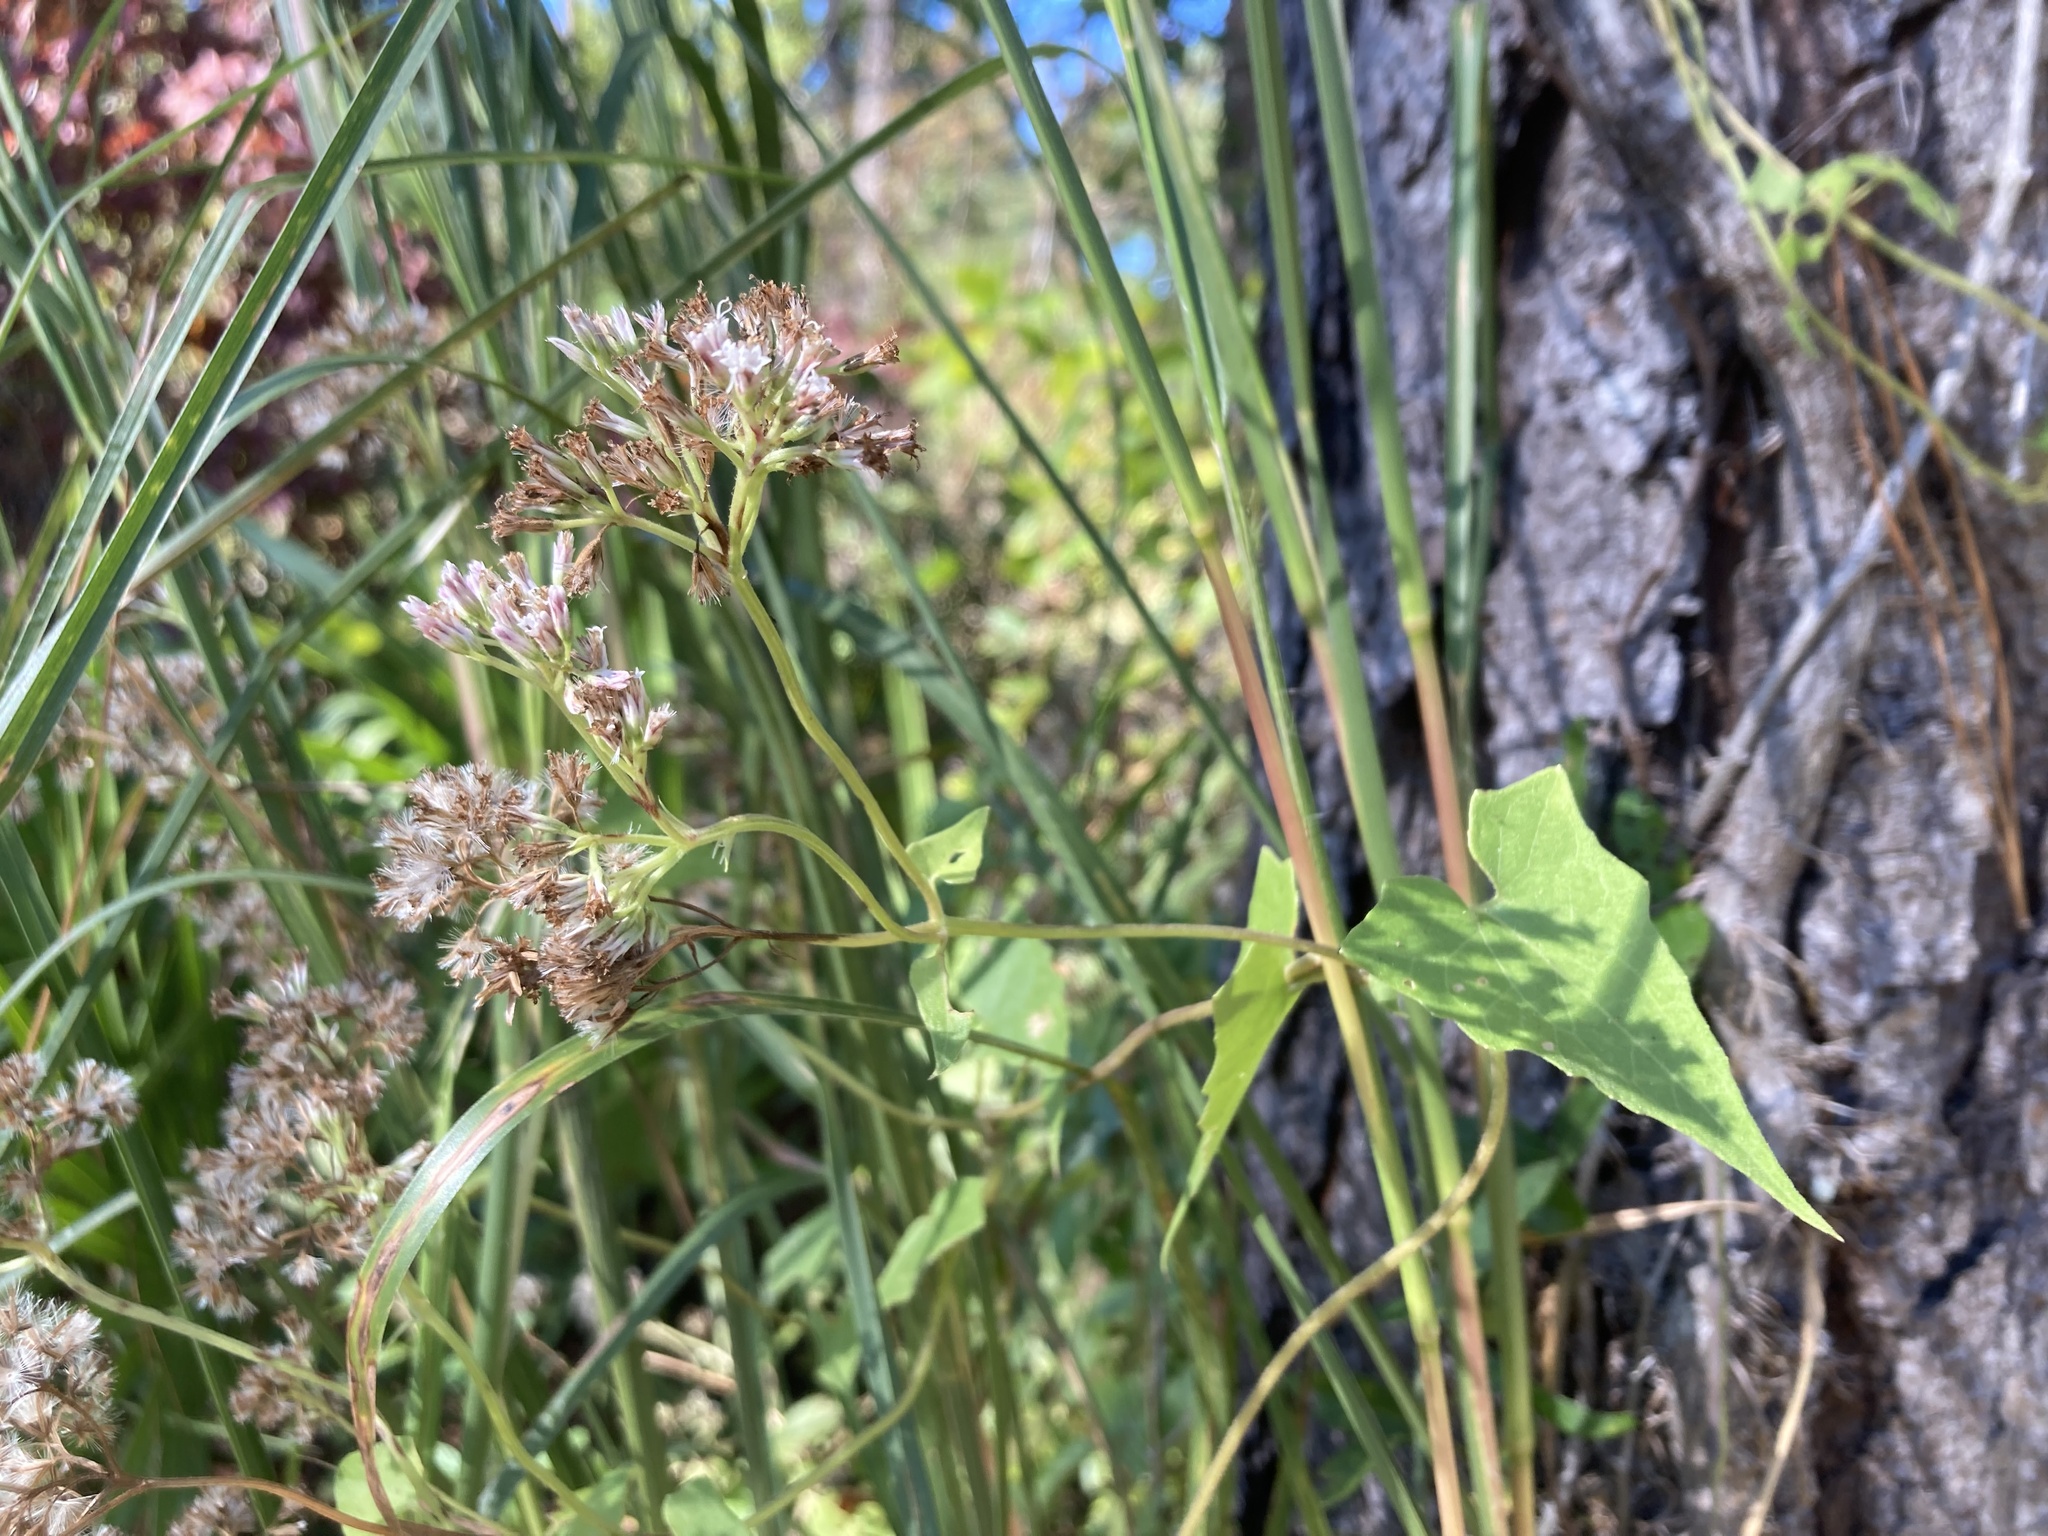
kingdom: Plantae
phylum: Tracheophyta
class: Magnoliopsida
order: Asterales
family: Asteraceae
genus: Mikania
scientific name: Mikania scandens
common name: Climbing hempvine
